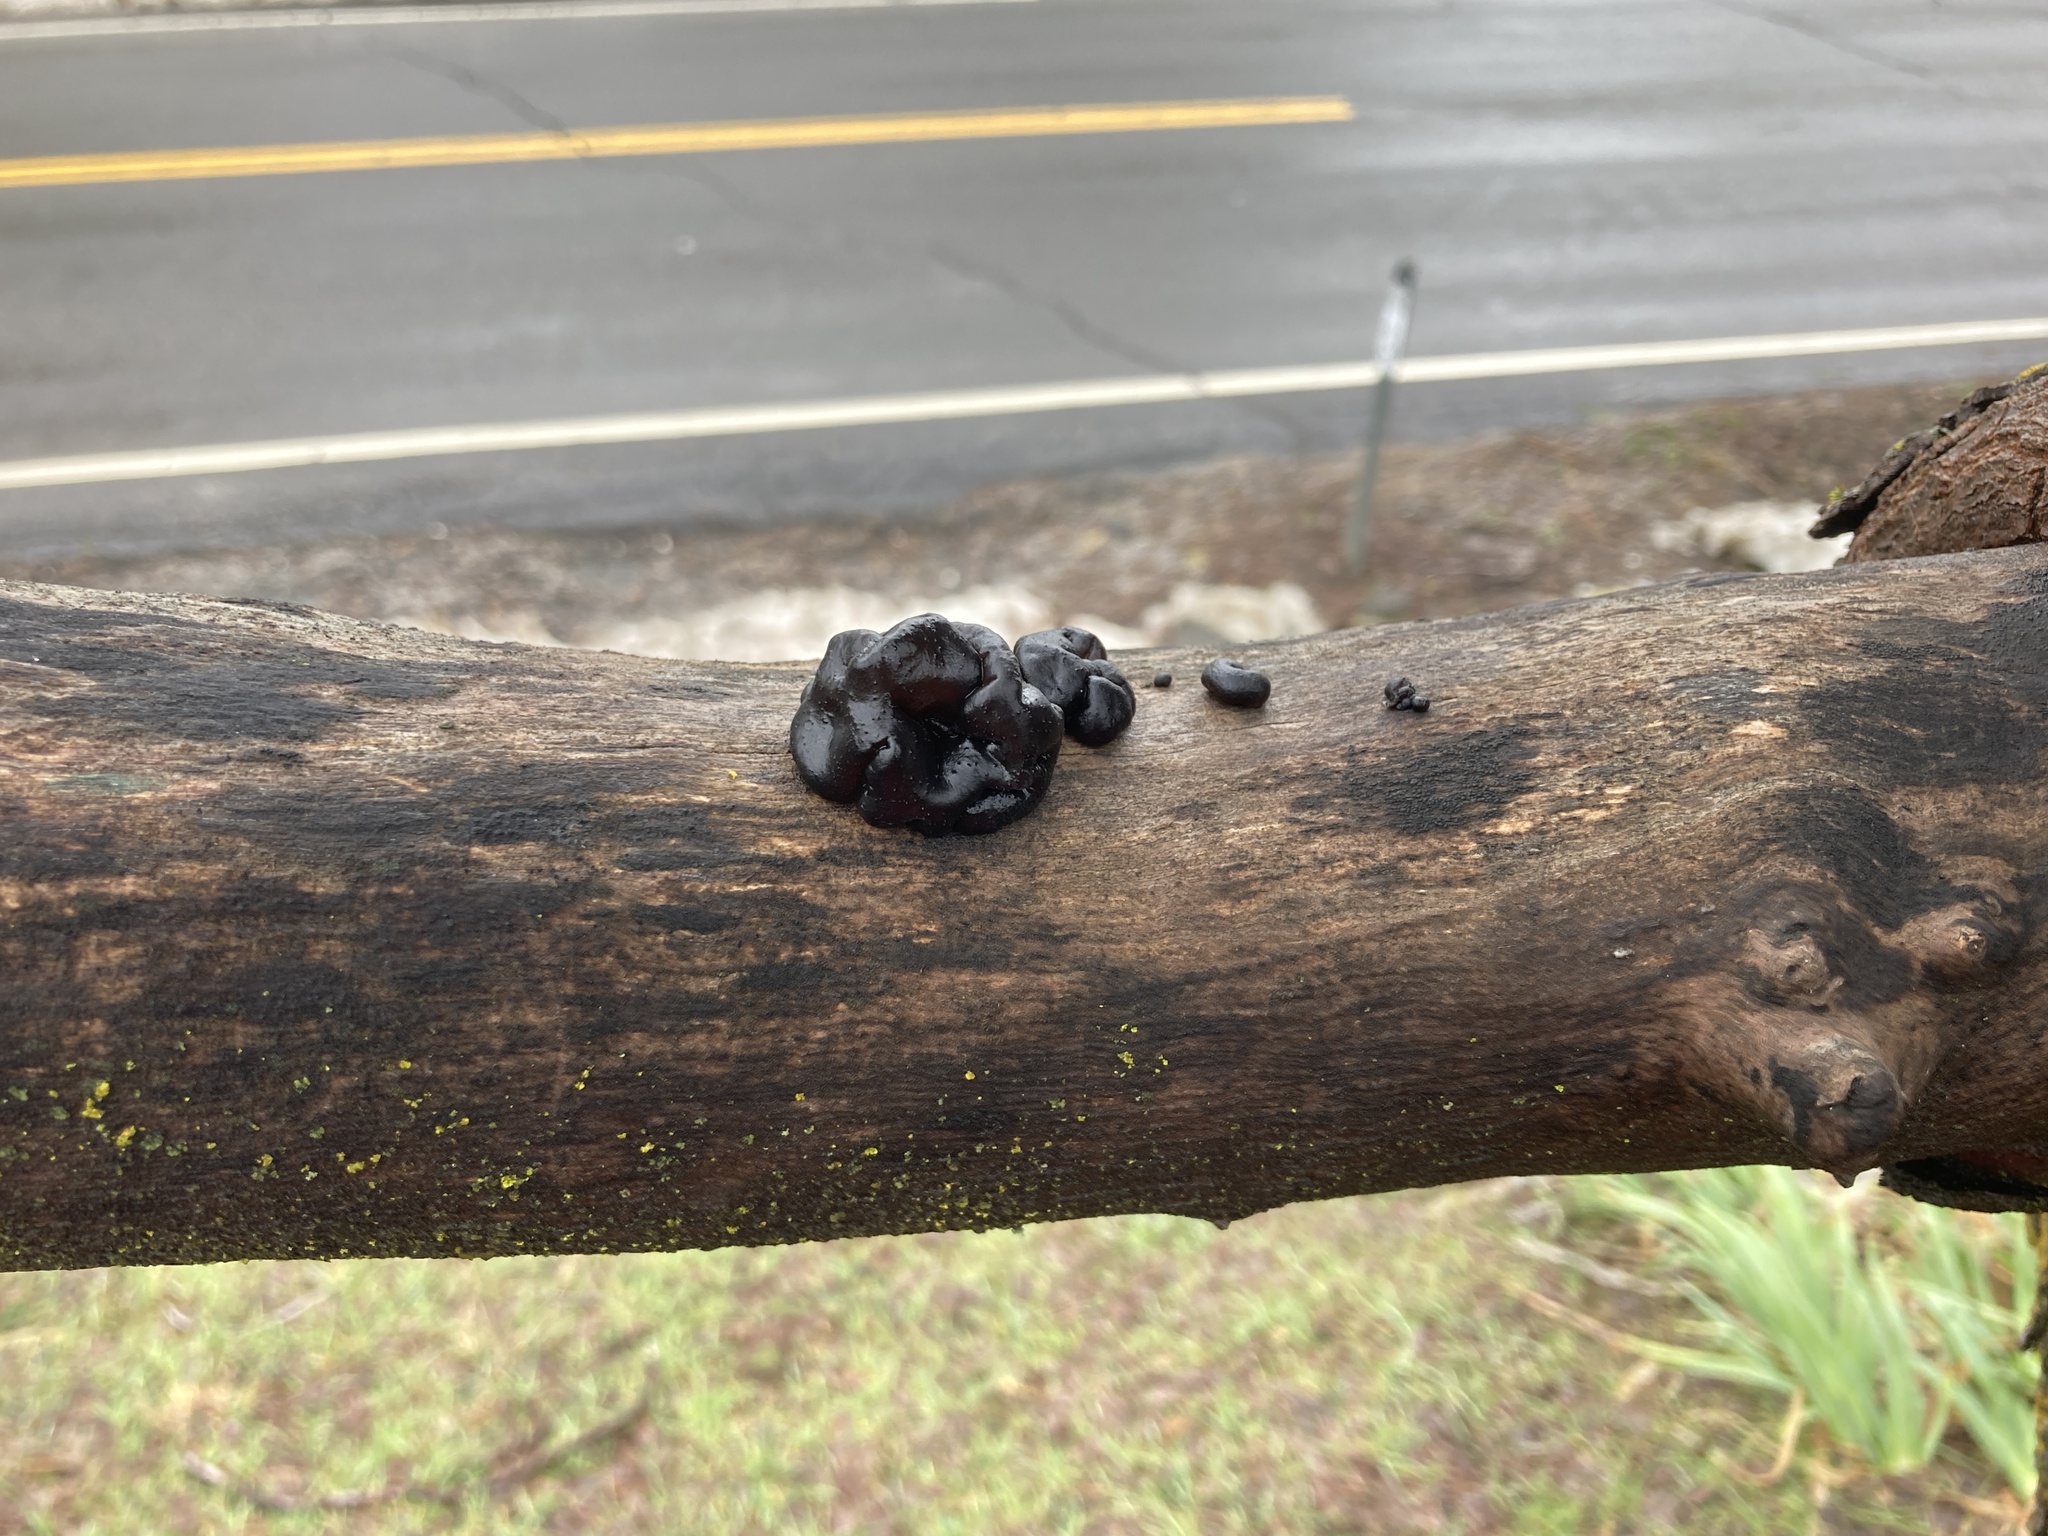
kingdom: Fungi
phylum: Basidiomycota
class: Agaricomycetes
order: Auriculariales
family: Auriculariaceae
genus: Exidia
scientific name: Exidia glandulosa
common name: Witches' butter
